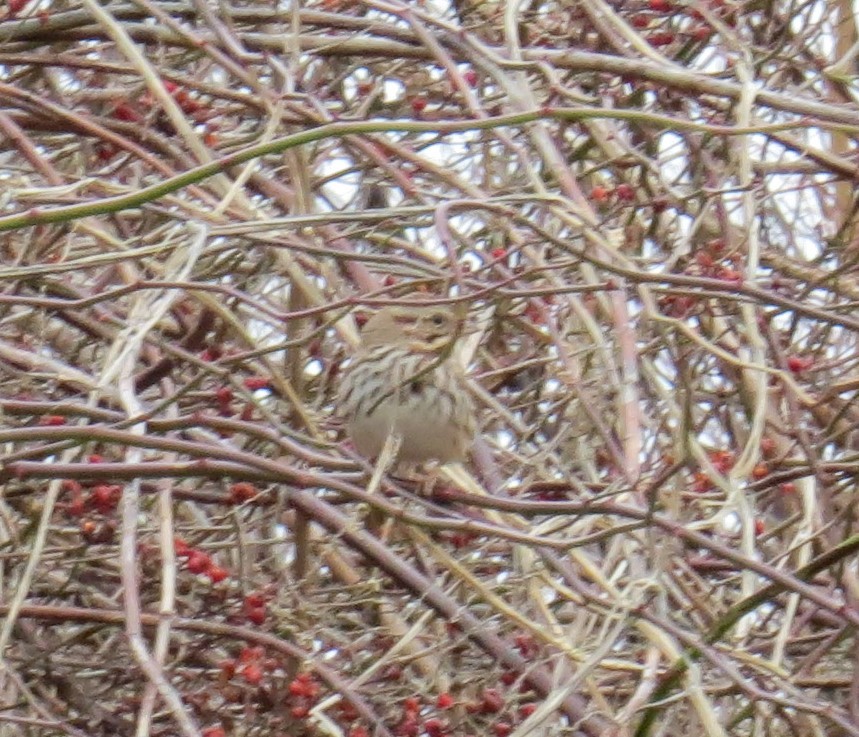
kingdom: Animalia
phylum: Chordata
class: Aves
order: Passeriformes
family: Passerellidae
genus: Melospiza
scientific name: Melospiza melodia
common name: Song sparrow
